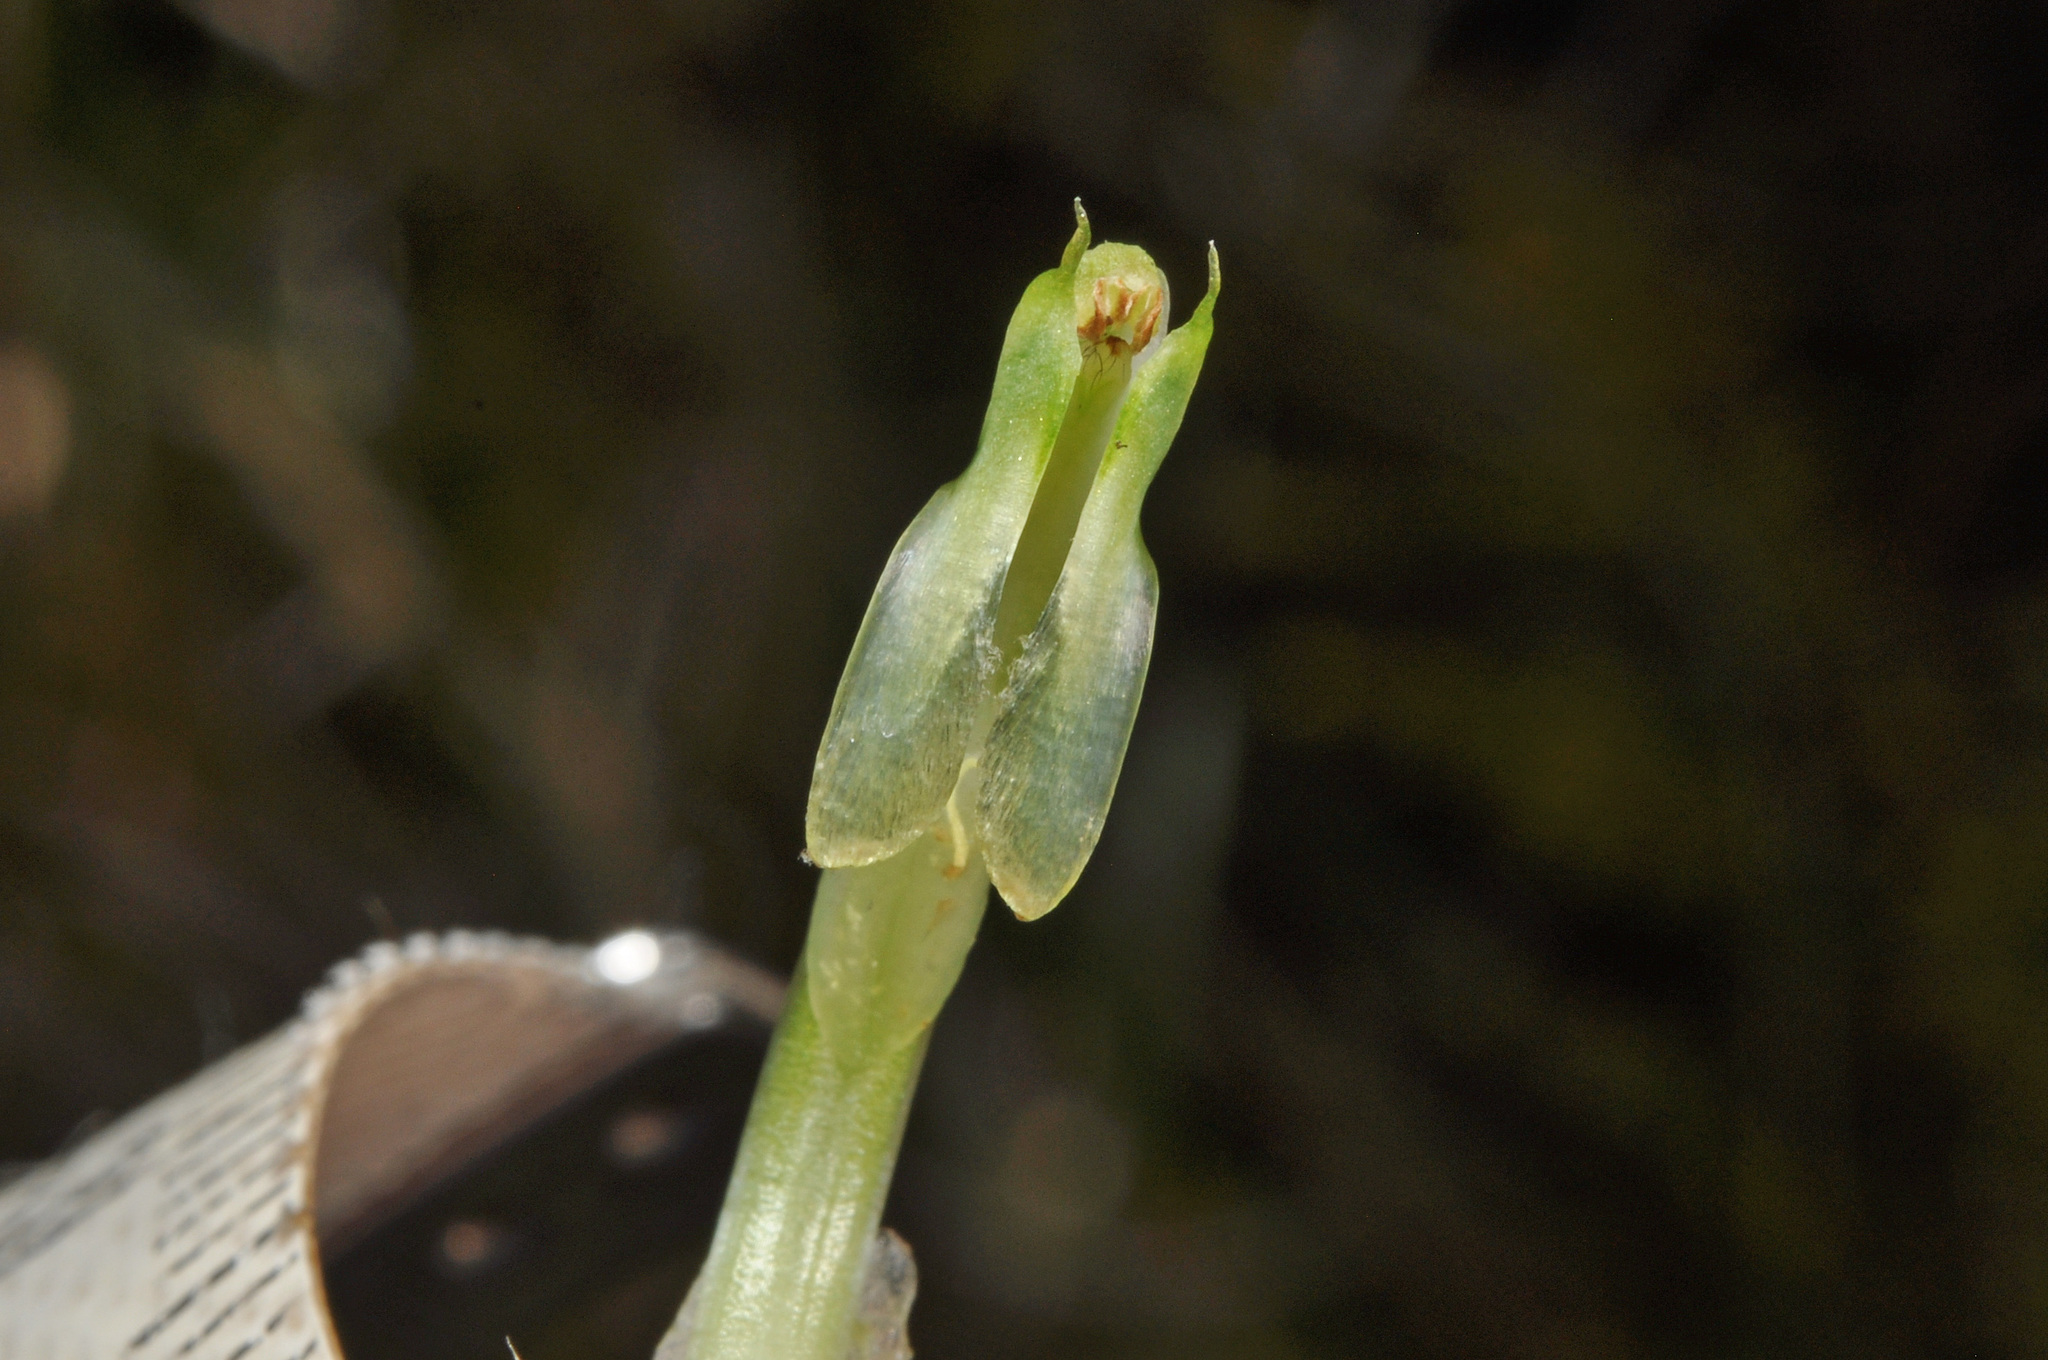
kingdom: Plantae
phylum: Tracheophyta
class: Liliopsida
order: Asparagales
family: Orchidaceae
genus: Pterostylis
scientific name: Pterostylis oliveri
